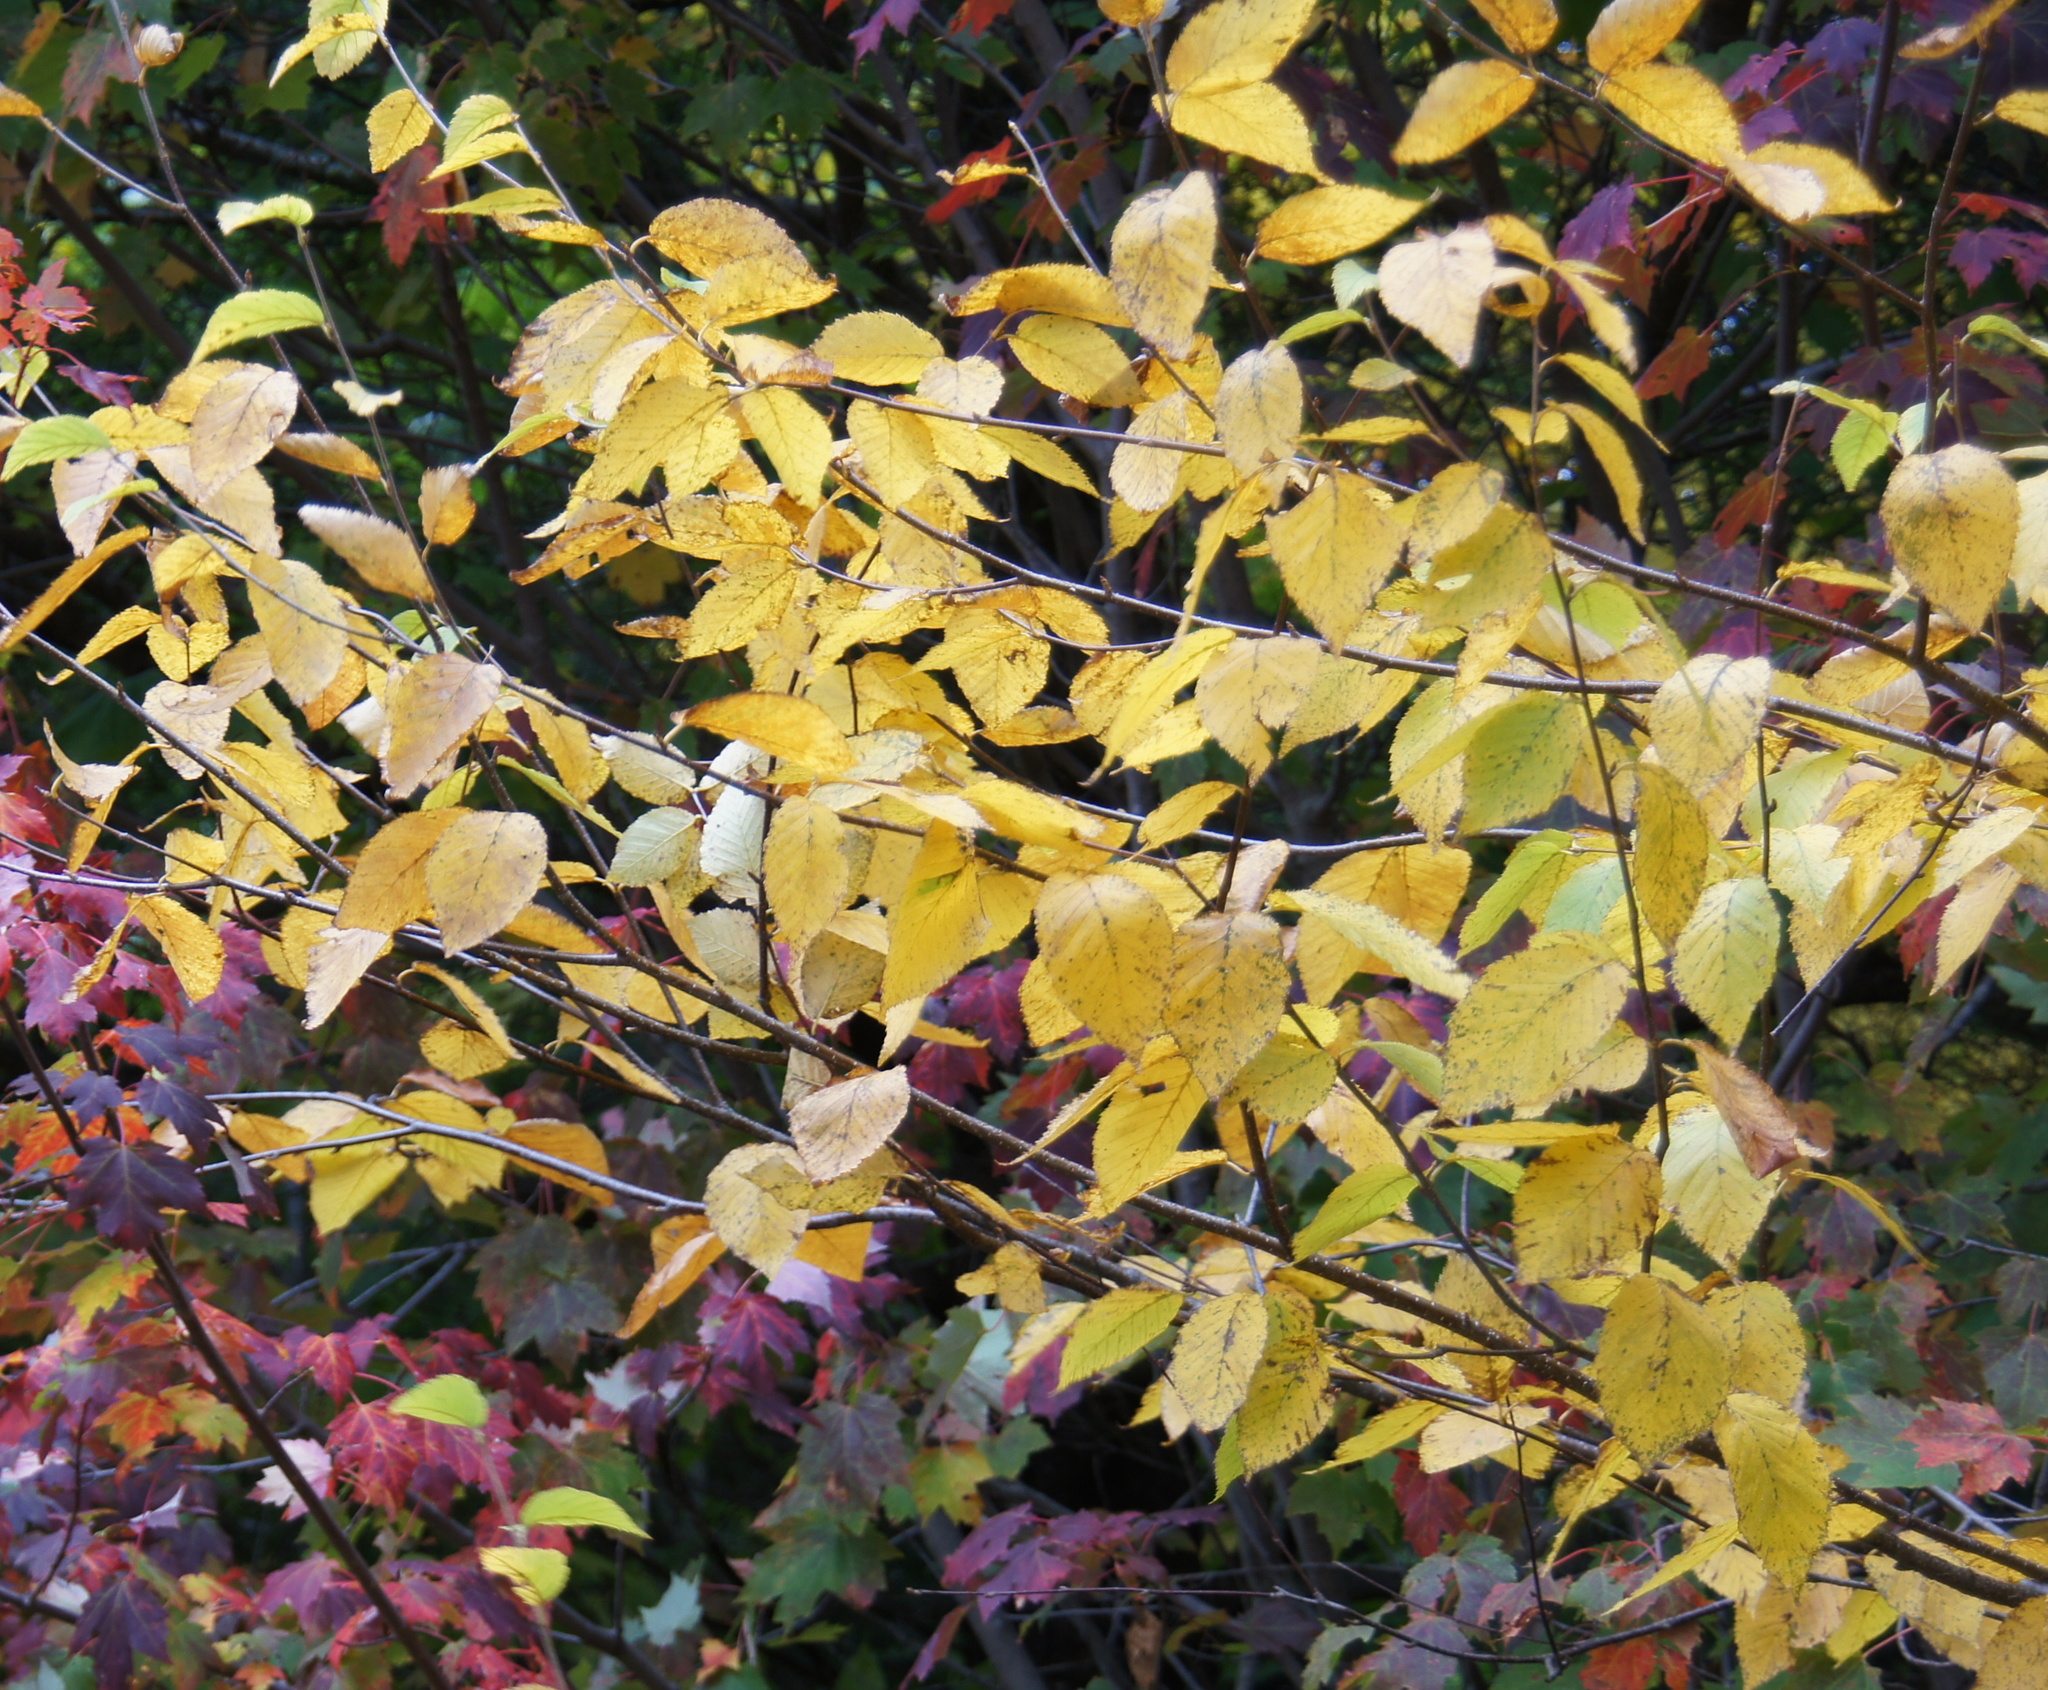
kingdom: Plantae
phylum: Tracheophyta
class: Magnoliopsida
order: Fagales
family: Betulaceae
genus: Betula
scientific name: Betula alleghaniensis
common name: Yellow birch
